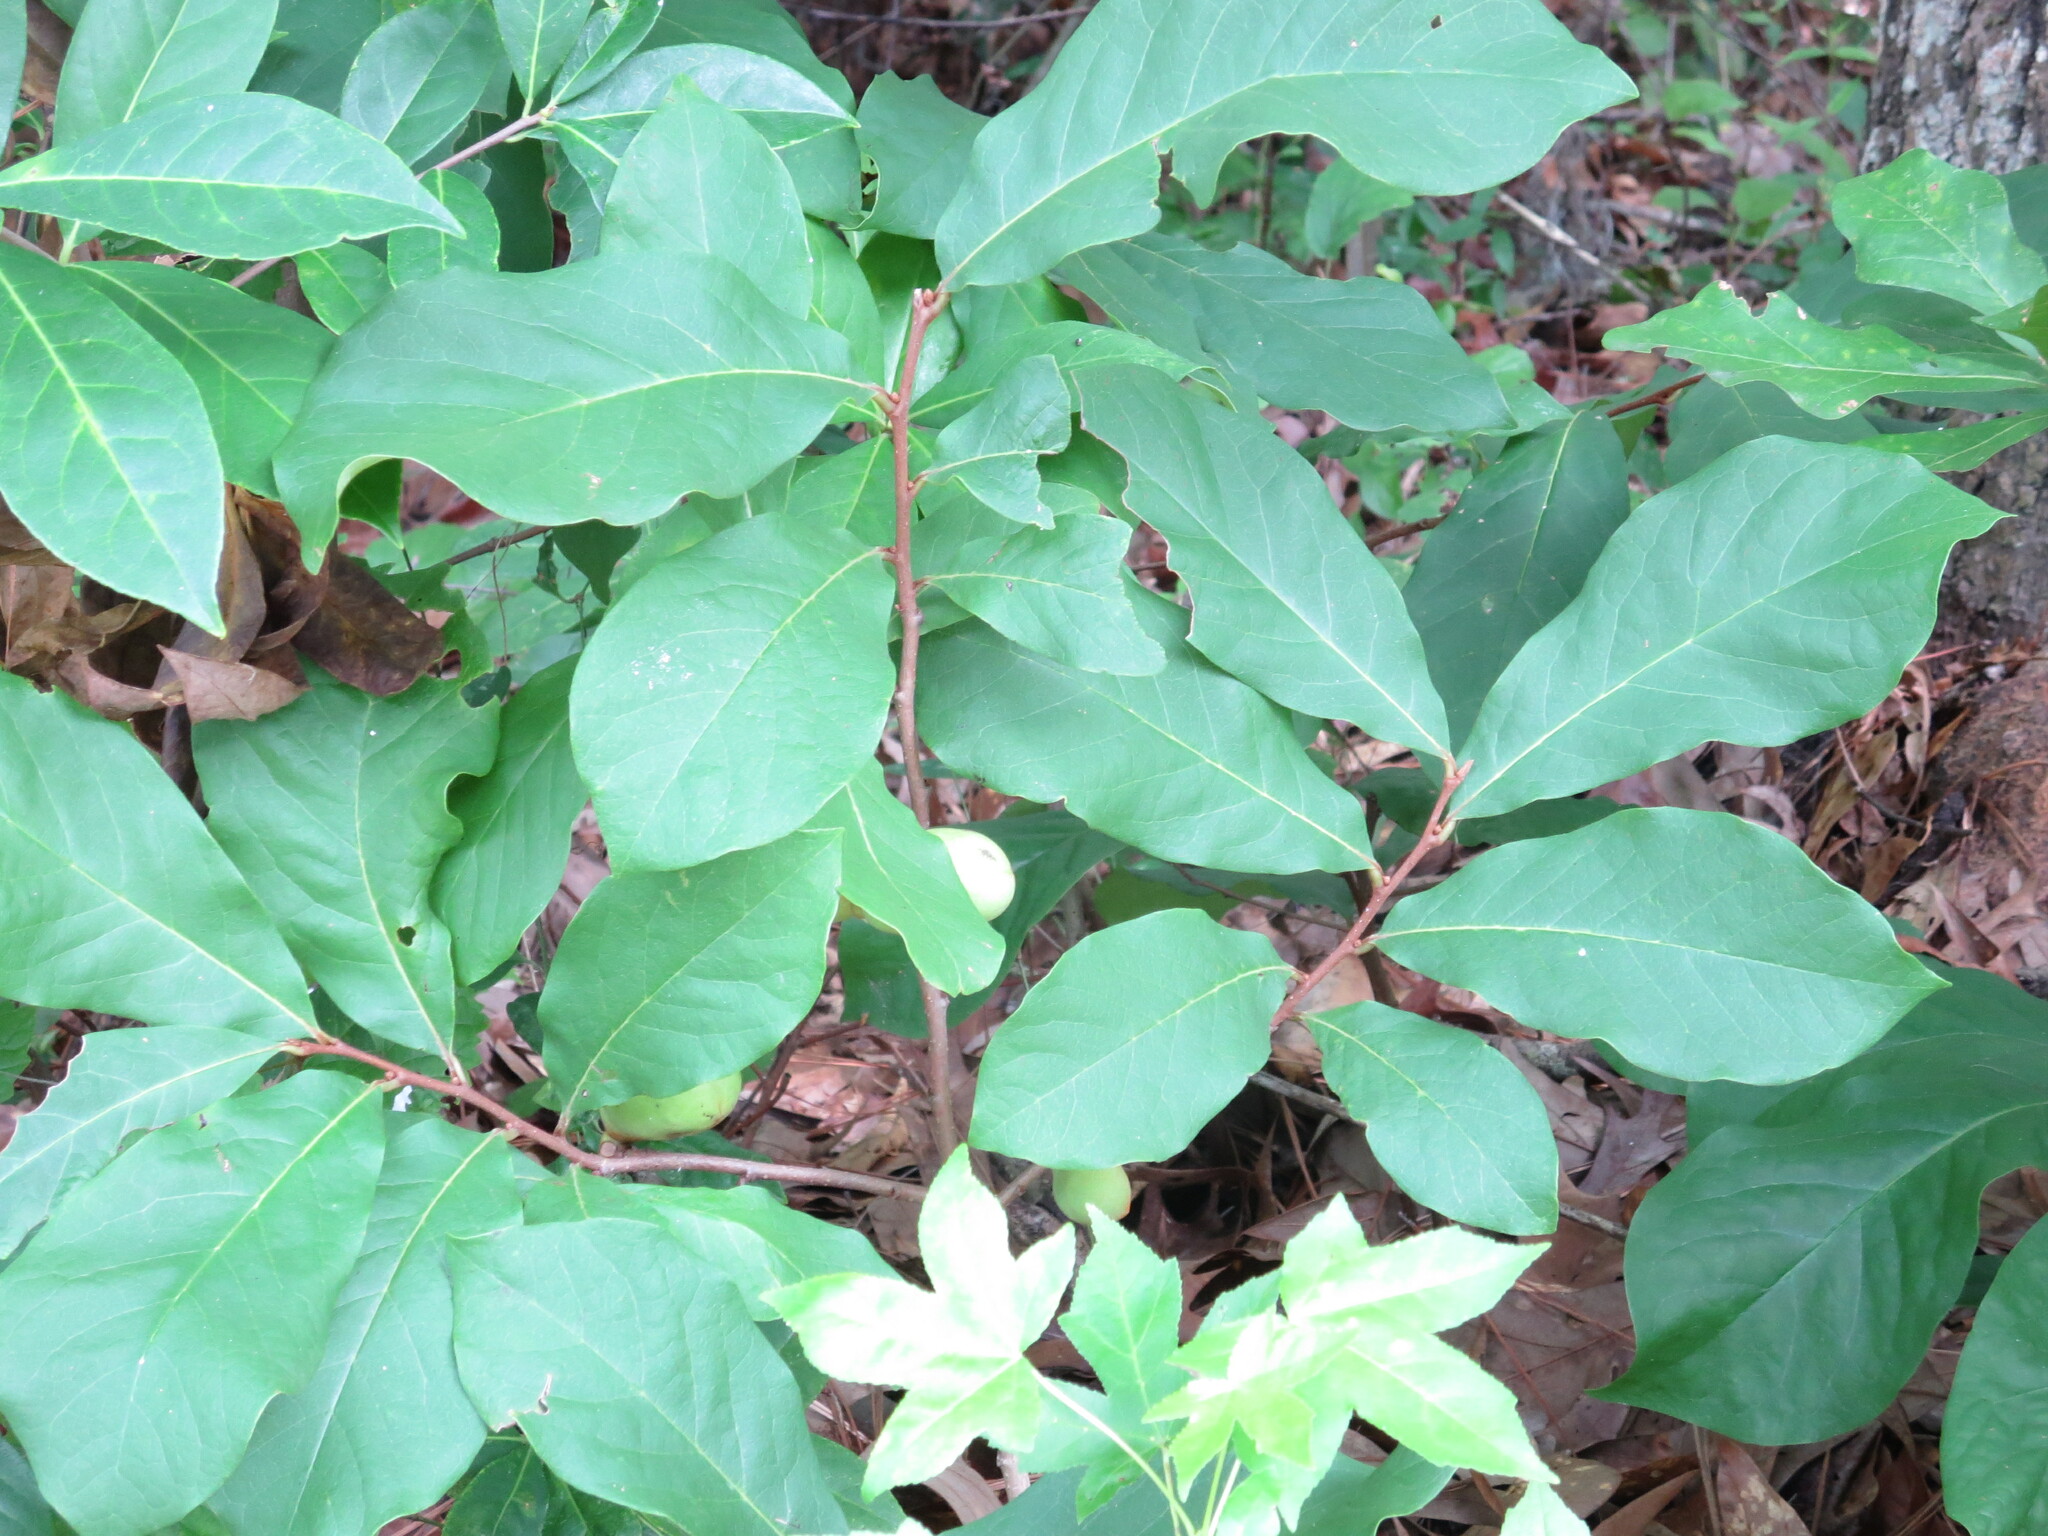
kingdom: Plantae
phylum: Tracheophyta
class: Magnoliopsida
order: Magnoliales
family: Annonaceae
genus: Asimina
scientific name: Asimina parviflora
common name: Dwarf pawpaw
